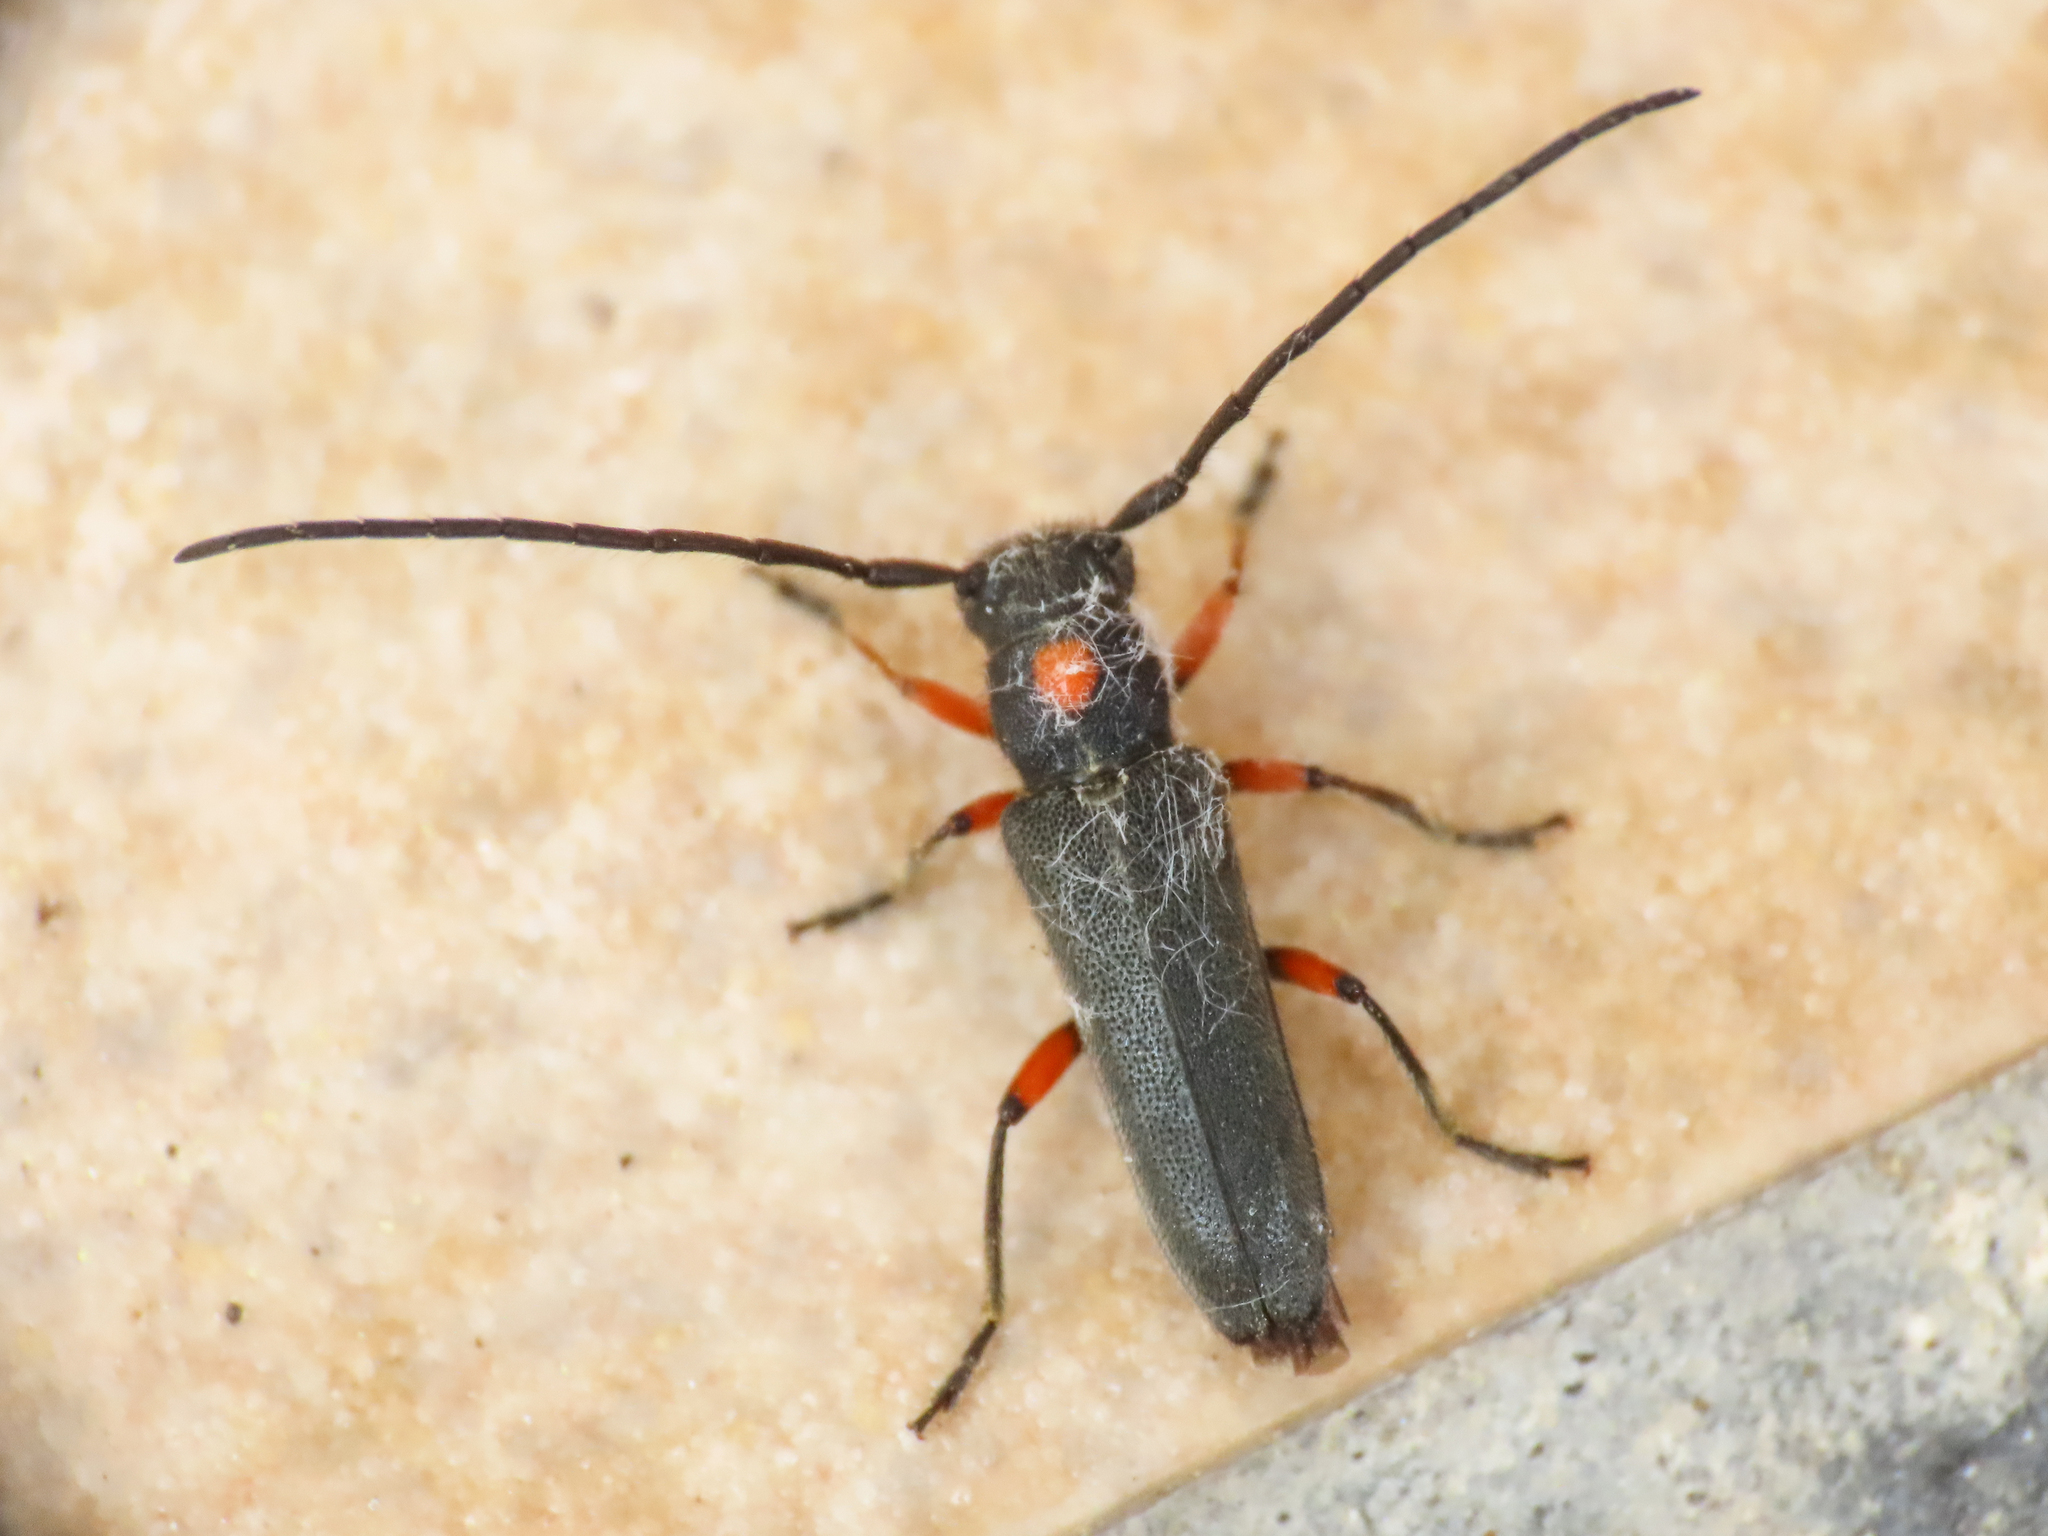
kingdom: Animalia
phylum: Arthropoda
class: Insecta
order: Coleoptera
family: Cerambycidae
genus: Phytoecia
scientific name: Phytoecia virgula
